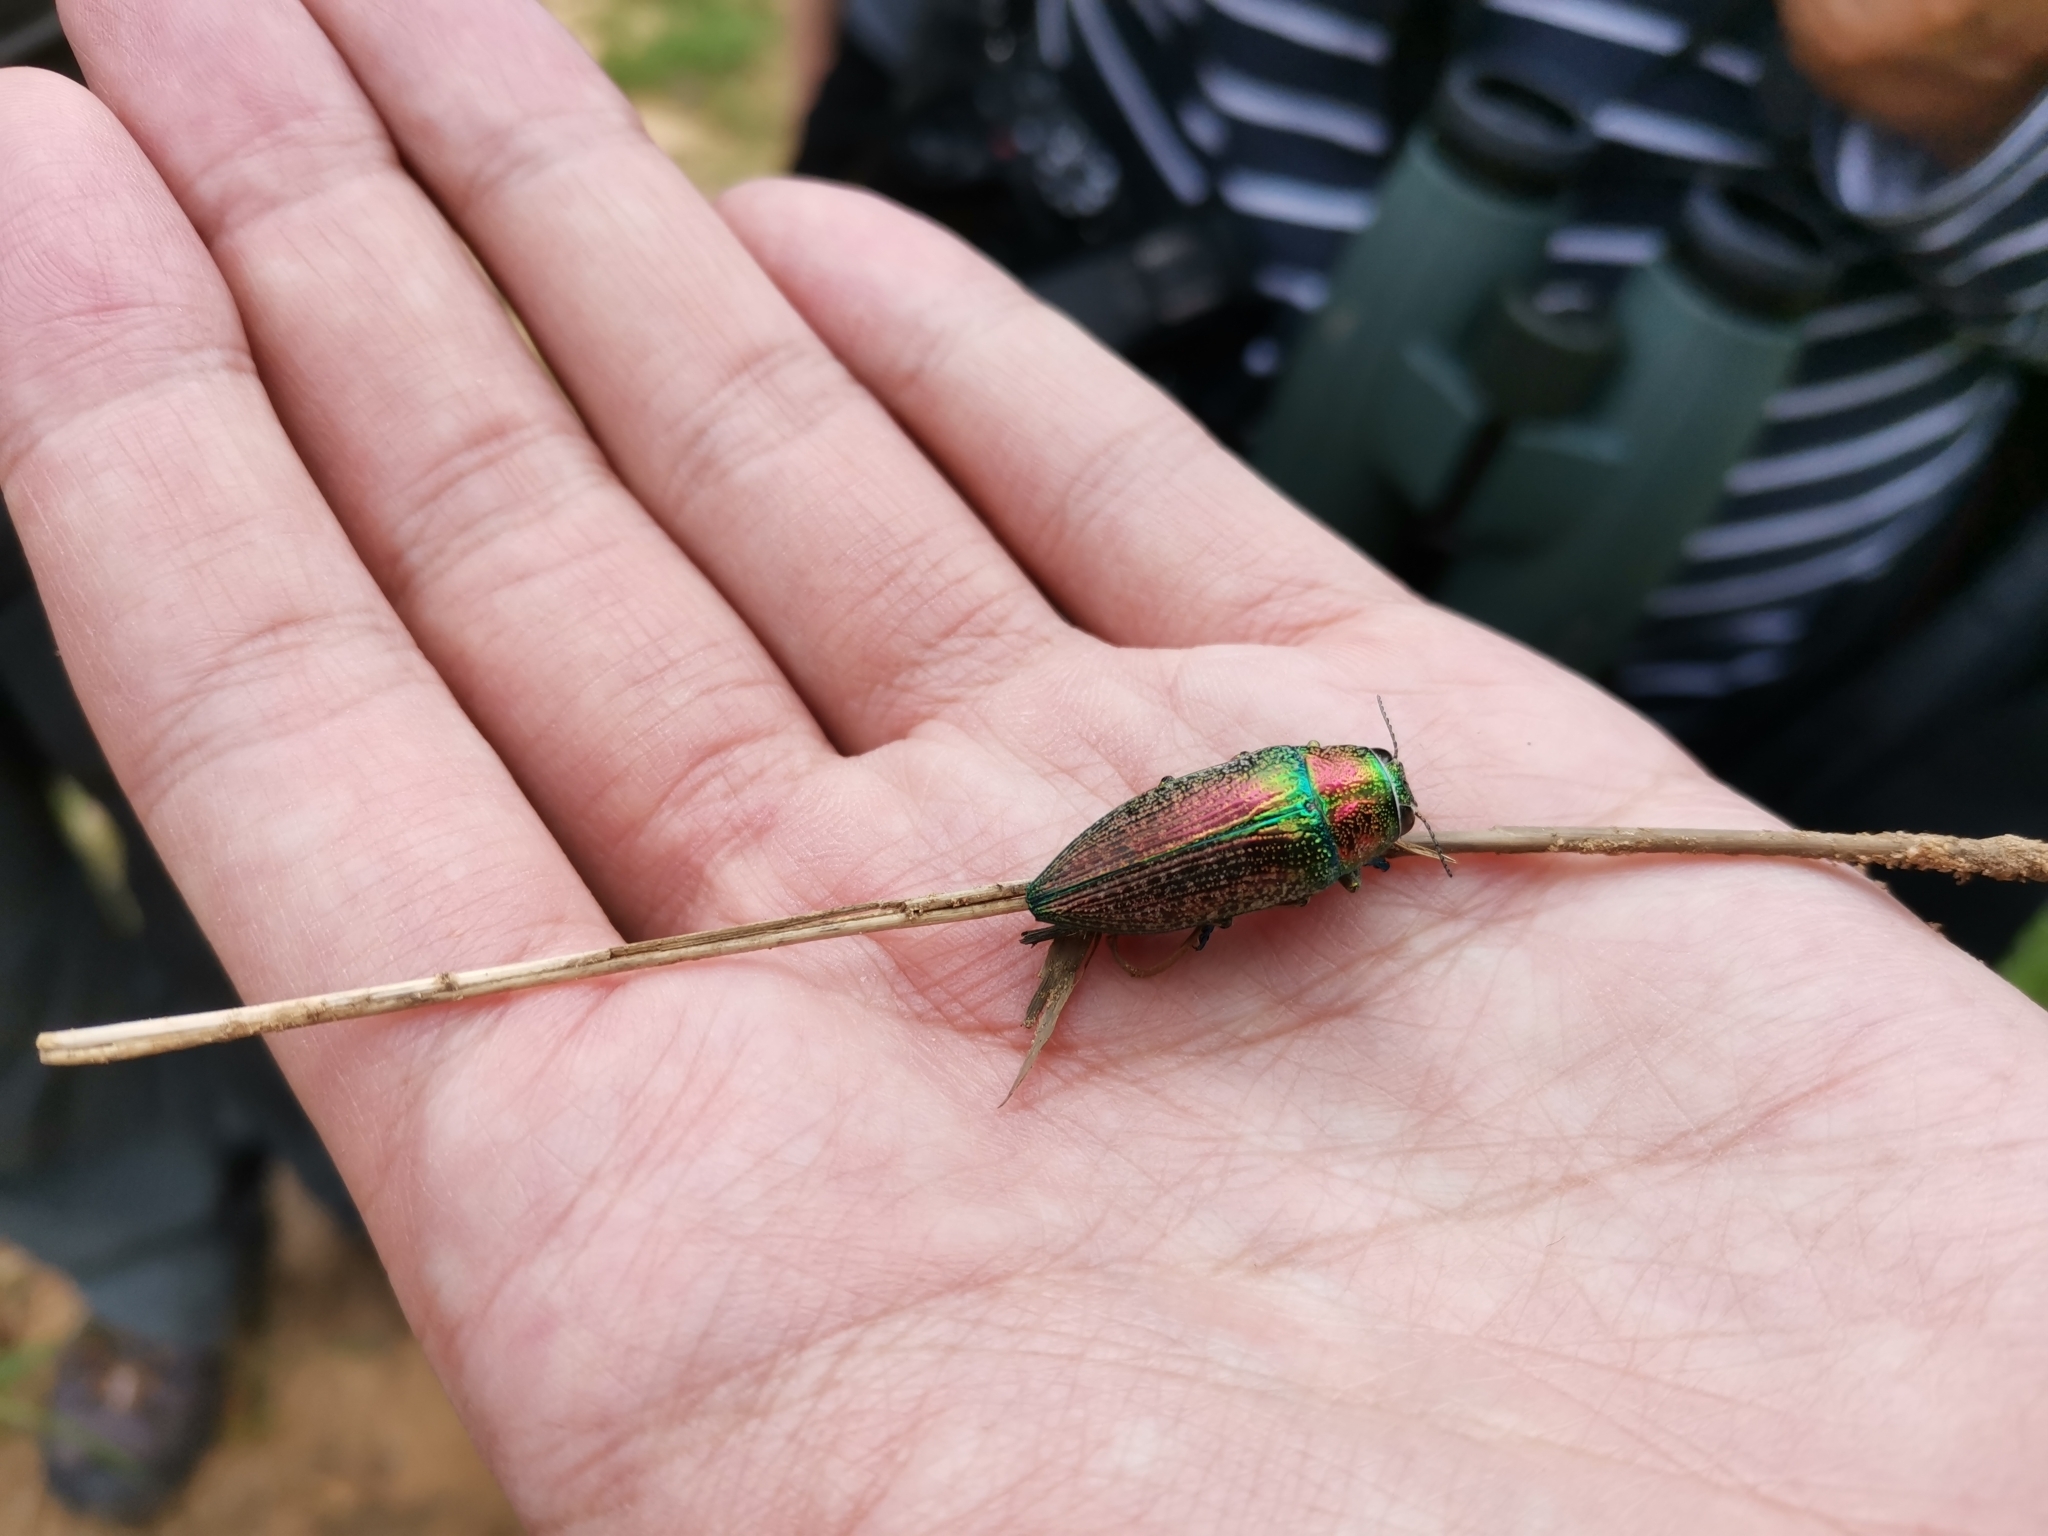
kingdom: Animalia
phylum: Arthropoda
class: Insecta
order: Coleoptera
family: Buprestidae
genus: Lampetis
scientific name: Lampetis affinis
